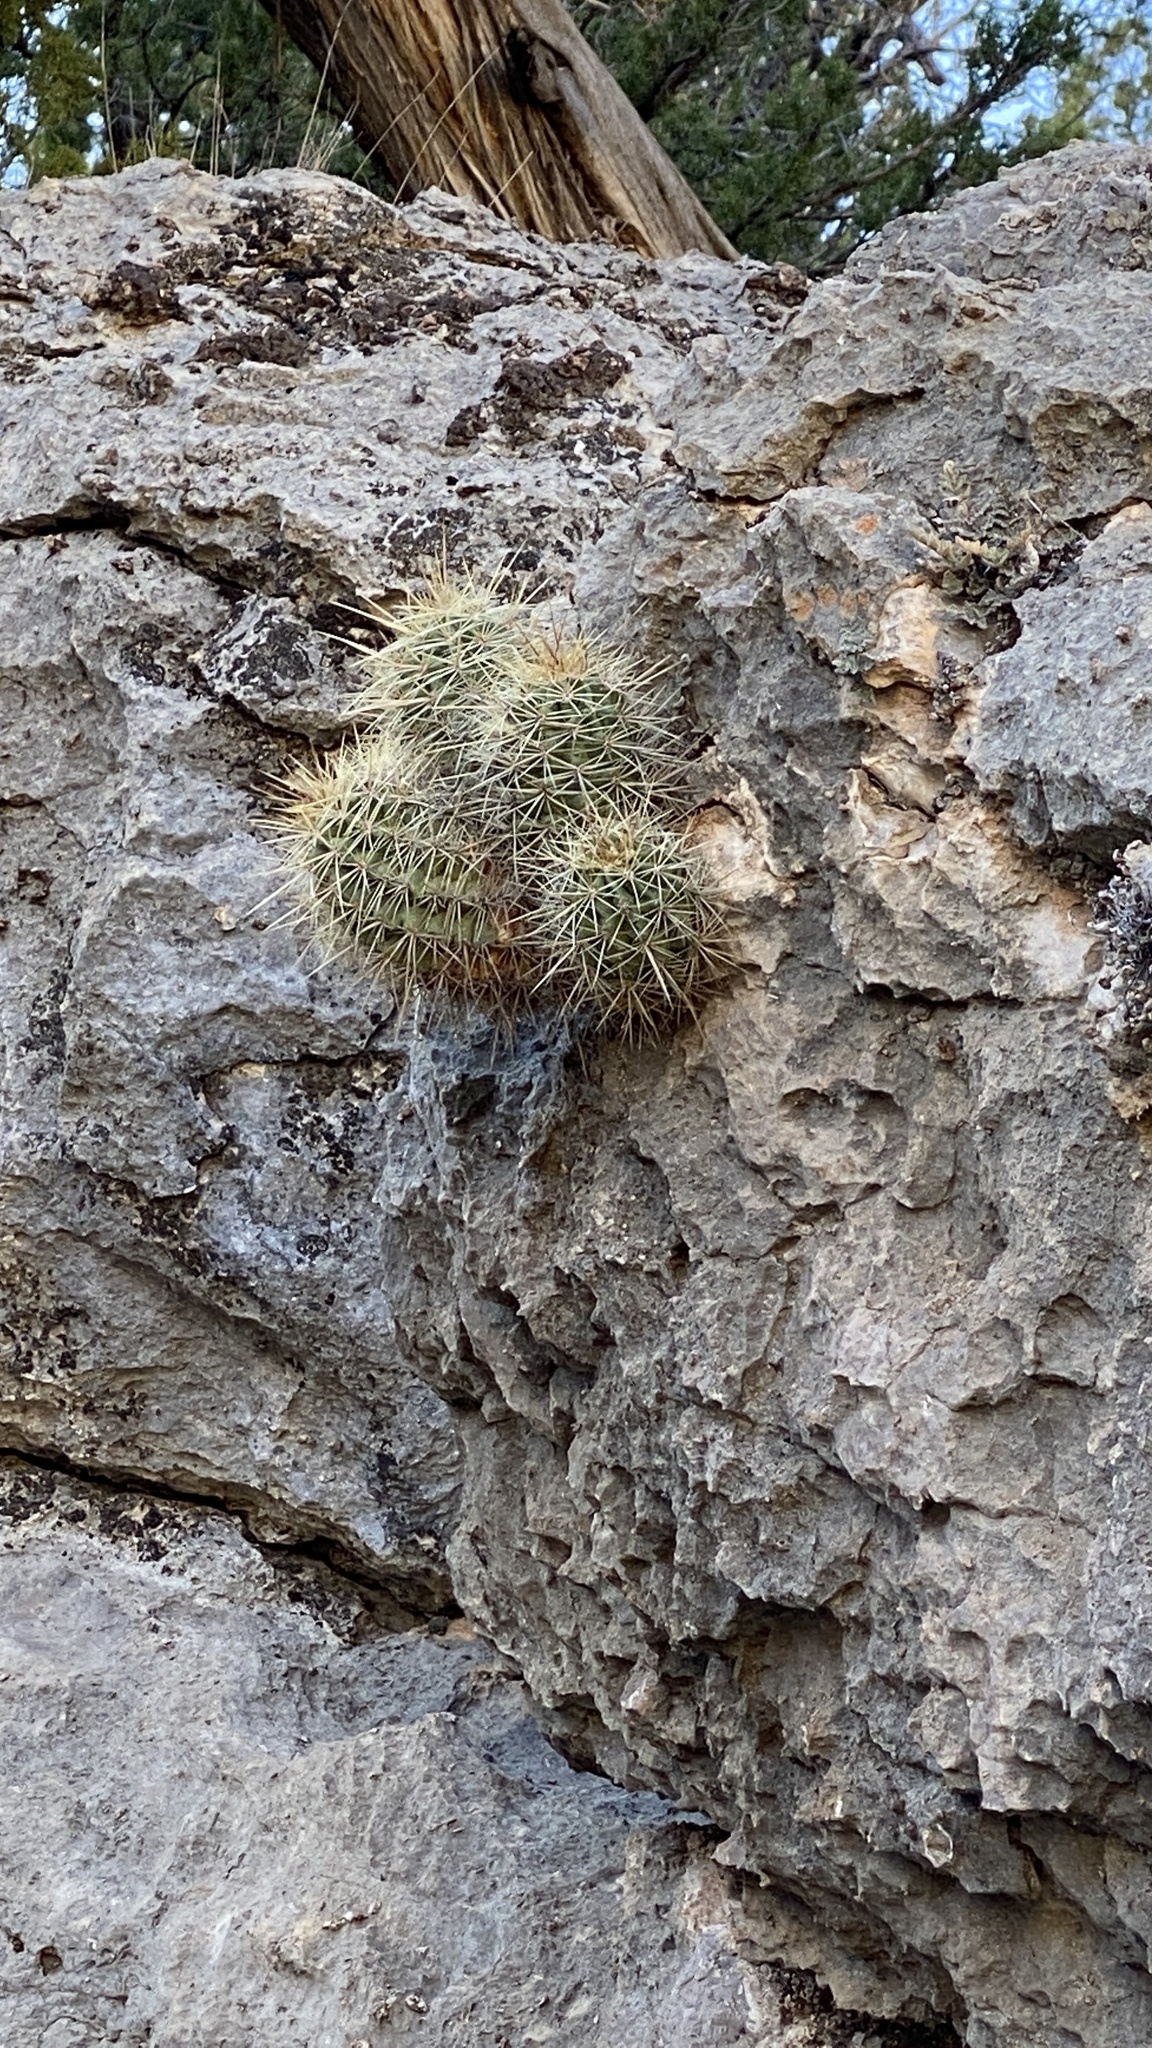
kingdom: Plantae
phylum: Tracheophyta
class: Magnoliopsida
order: Caryophyllales
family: Cactaceae
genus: Echinocereus
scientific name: Echinocereus coccineus
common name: Scarlet hedgehog cactus
